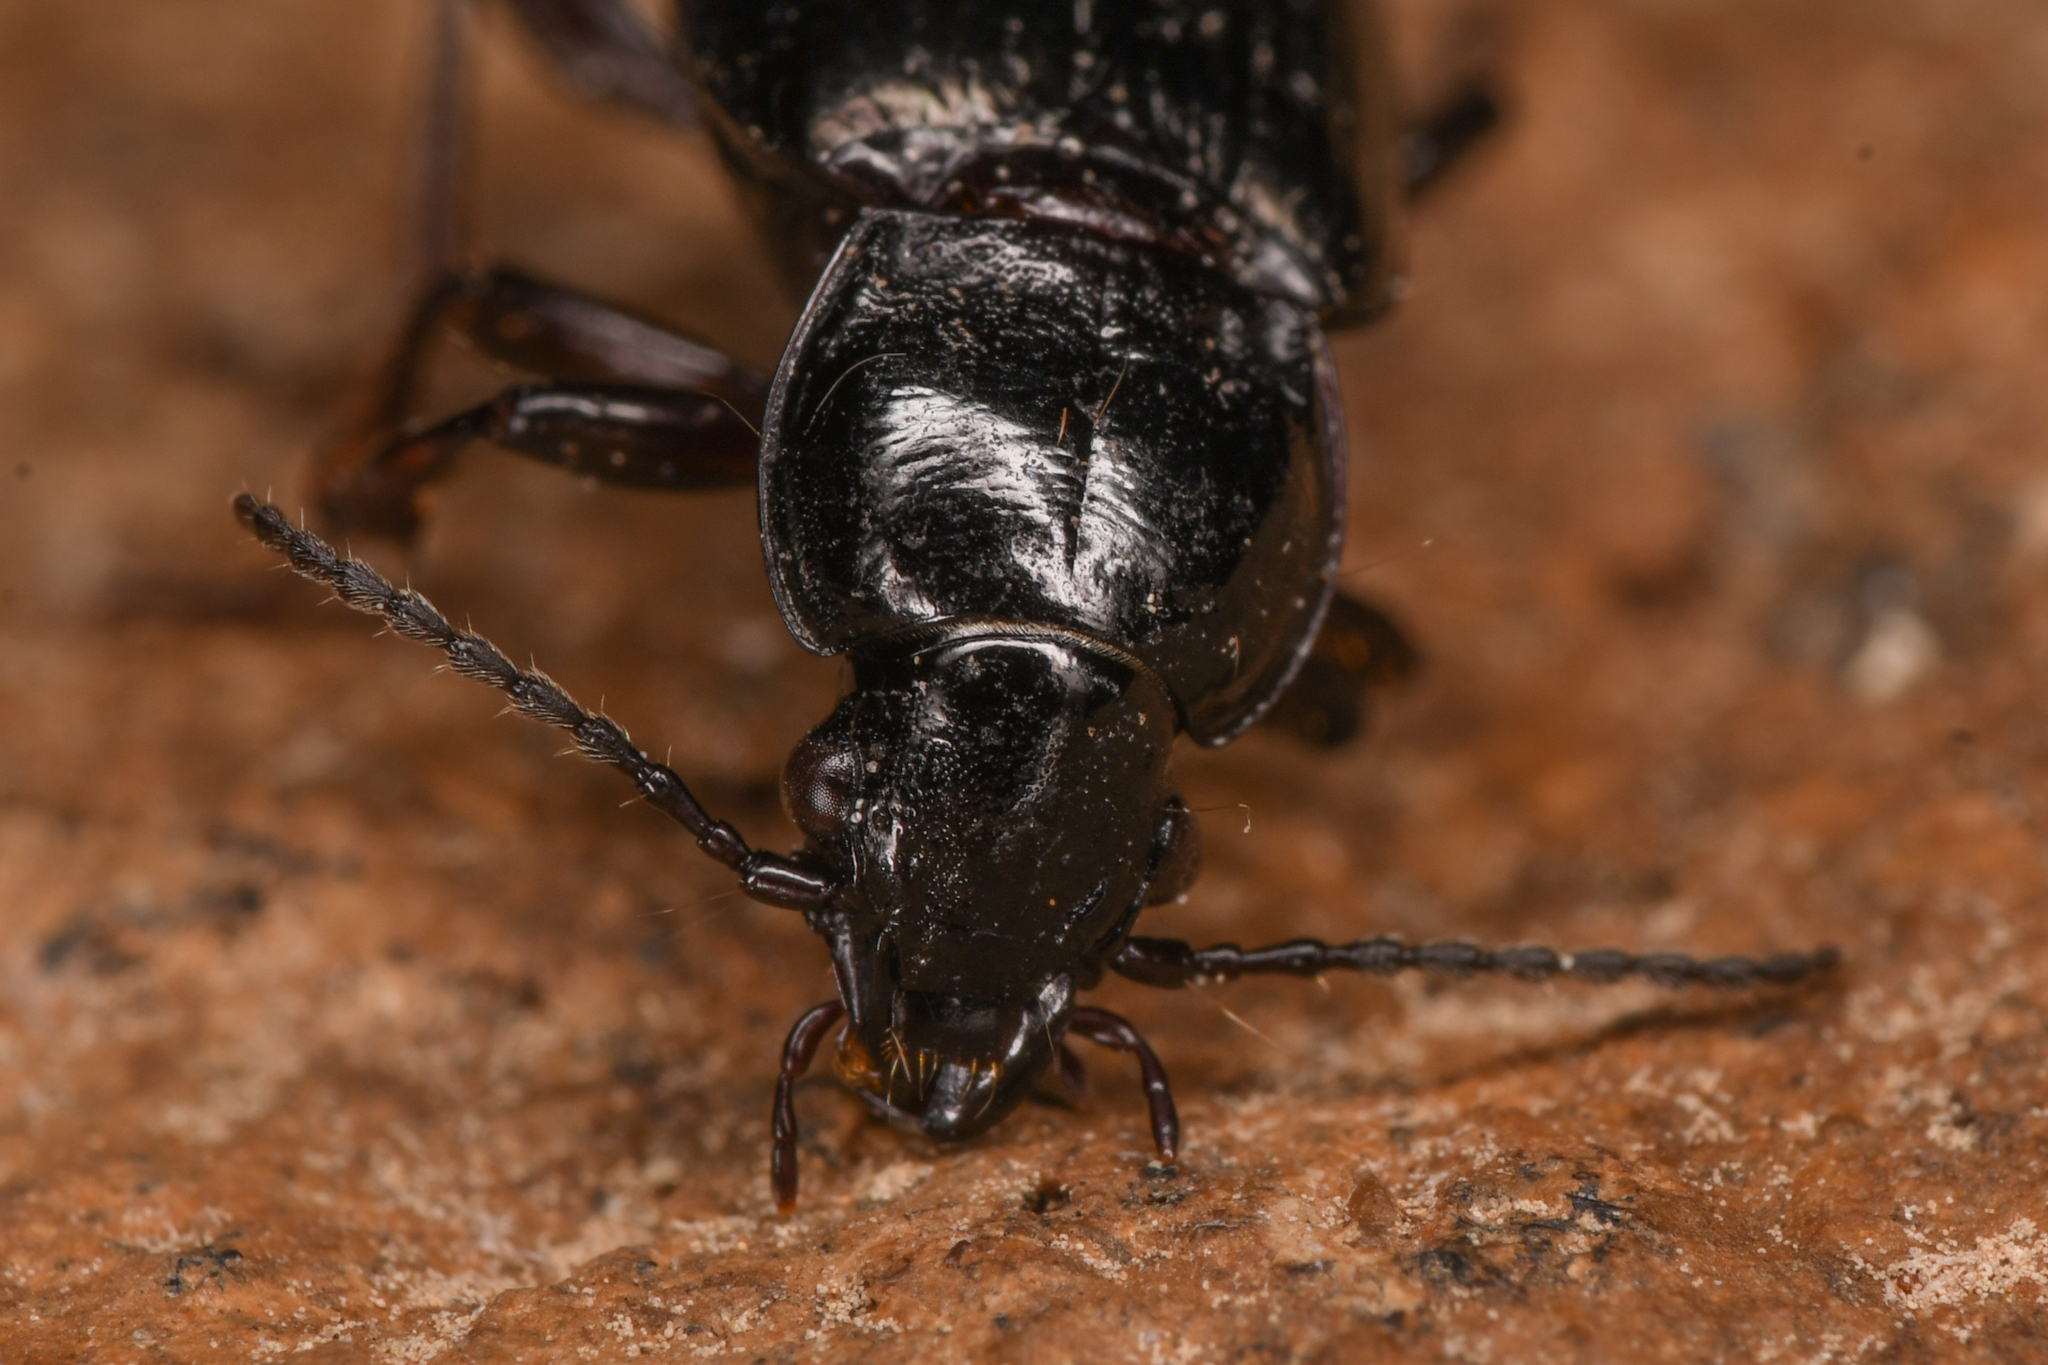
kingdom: Animalia
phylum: Arthropoda
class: Insecta
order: Coleoptera
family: Carabidae
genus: Stereocerus
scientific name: Stereocerus haematopus
